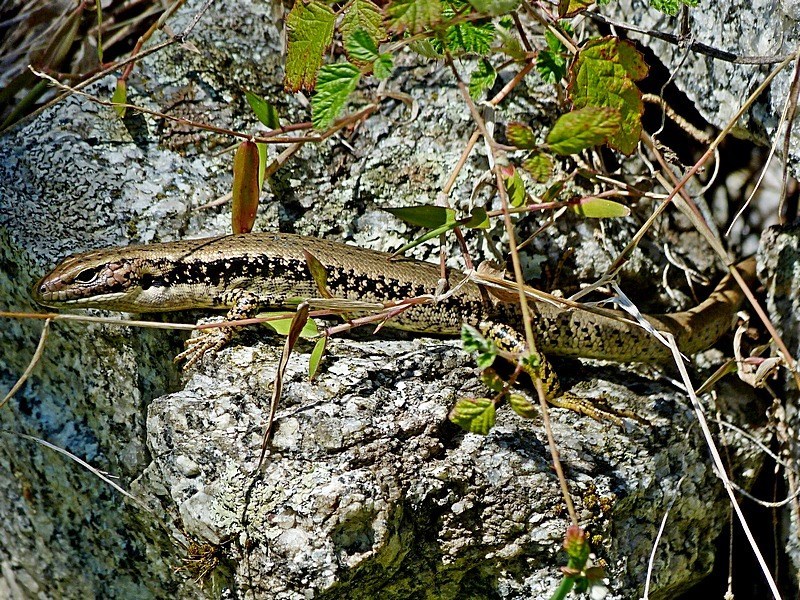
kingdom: Animalia
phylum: Chordata
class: Squamata
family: Scincidae
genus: Eulamprus
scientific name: Eulamprus heatwolei
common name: Warm-temperate water-skink
